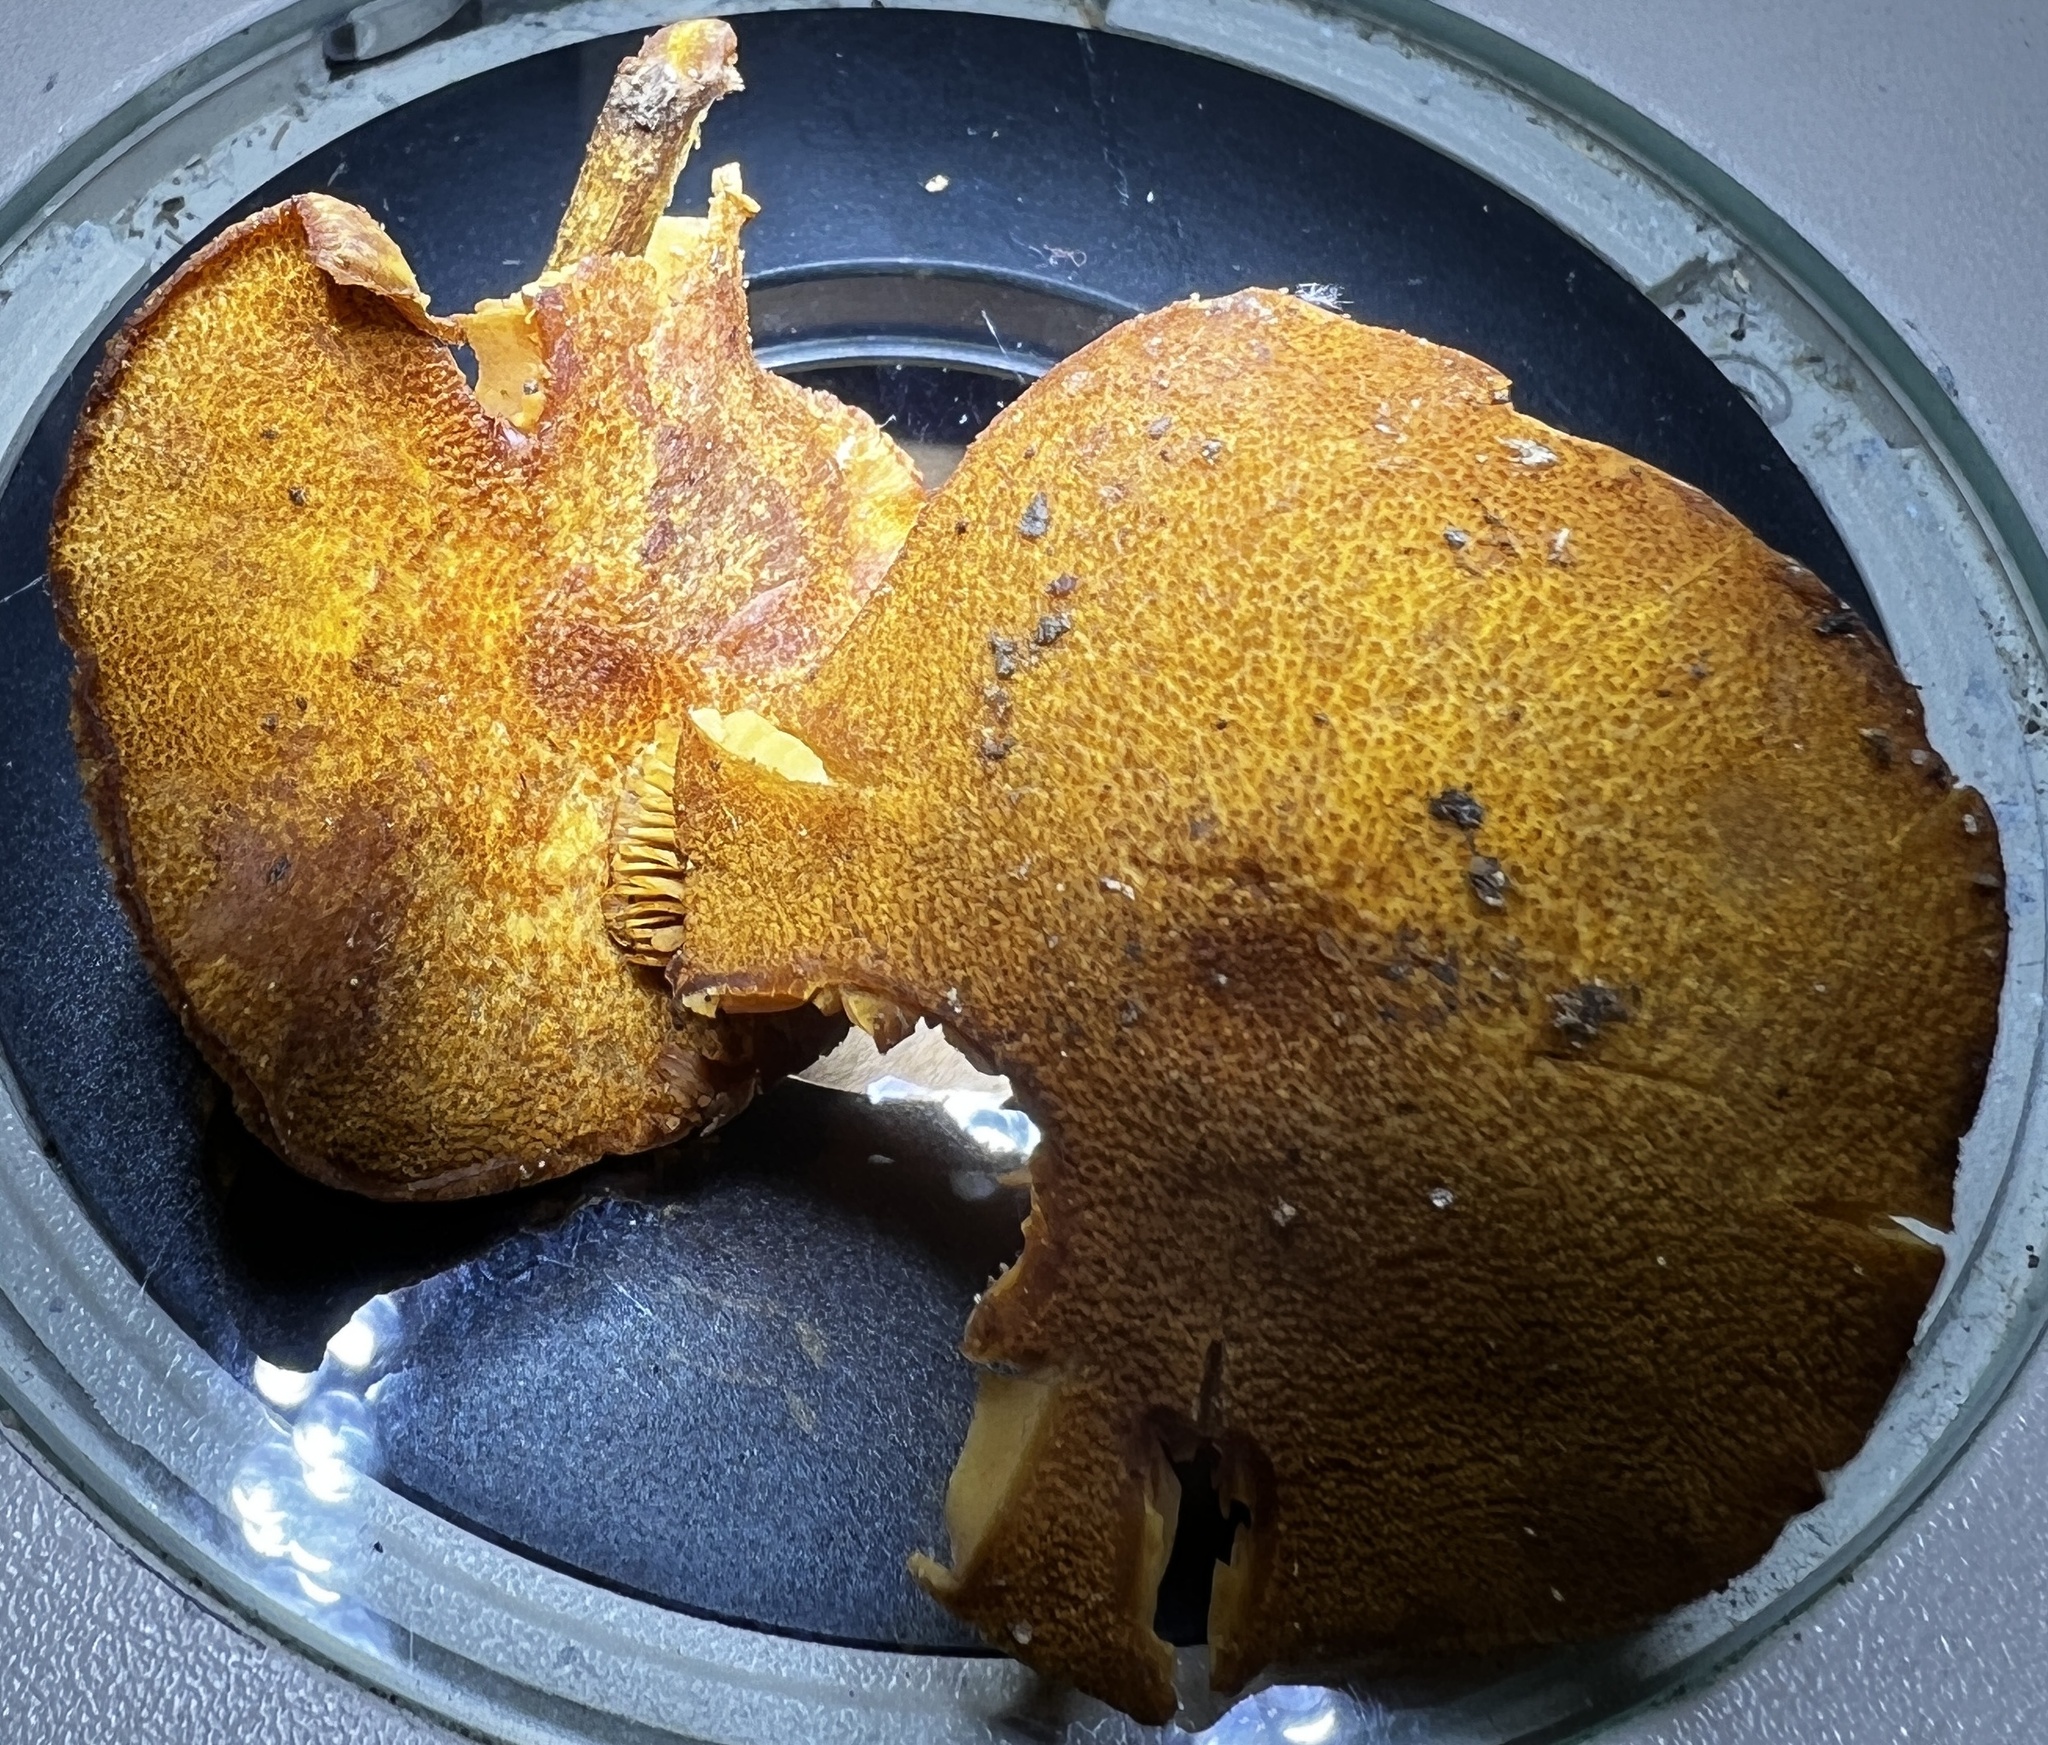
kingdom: Fungi
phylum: Basidiomycota
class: Agaricomycetes
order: Agaricales
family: Tubariaceae
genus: Phaeomarasmius
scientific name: Phaeomarasmius proximans
